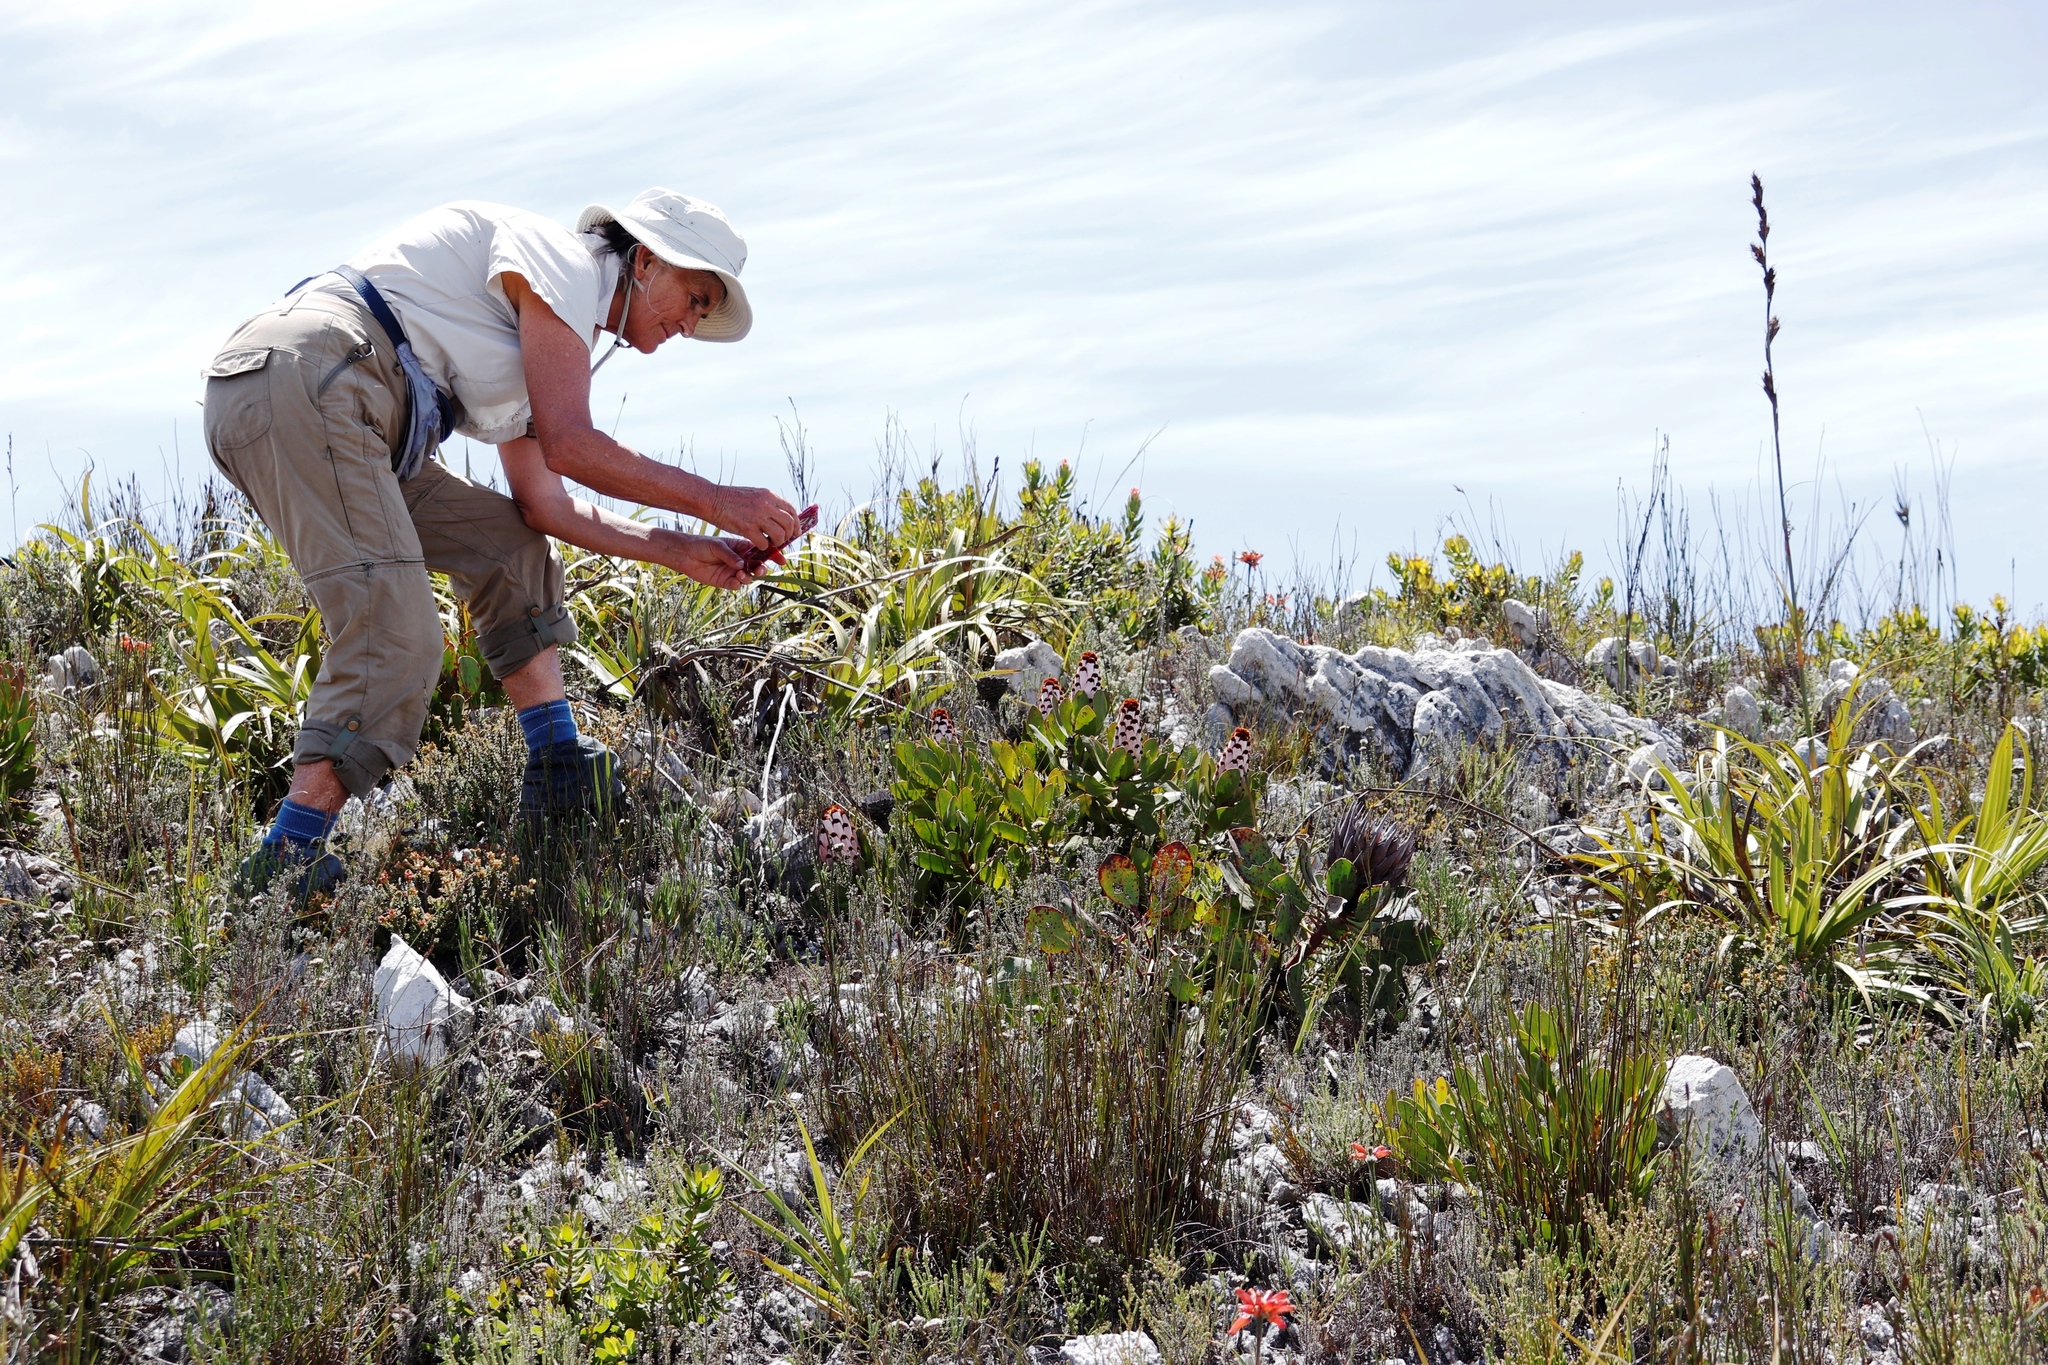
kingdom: Plantae
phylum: Tracheophyta
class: Magnoliopsida
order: Proteales
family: Proteaceae
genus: Protea
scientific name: Protea speciosa
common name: Brown-beard sugarbush
